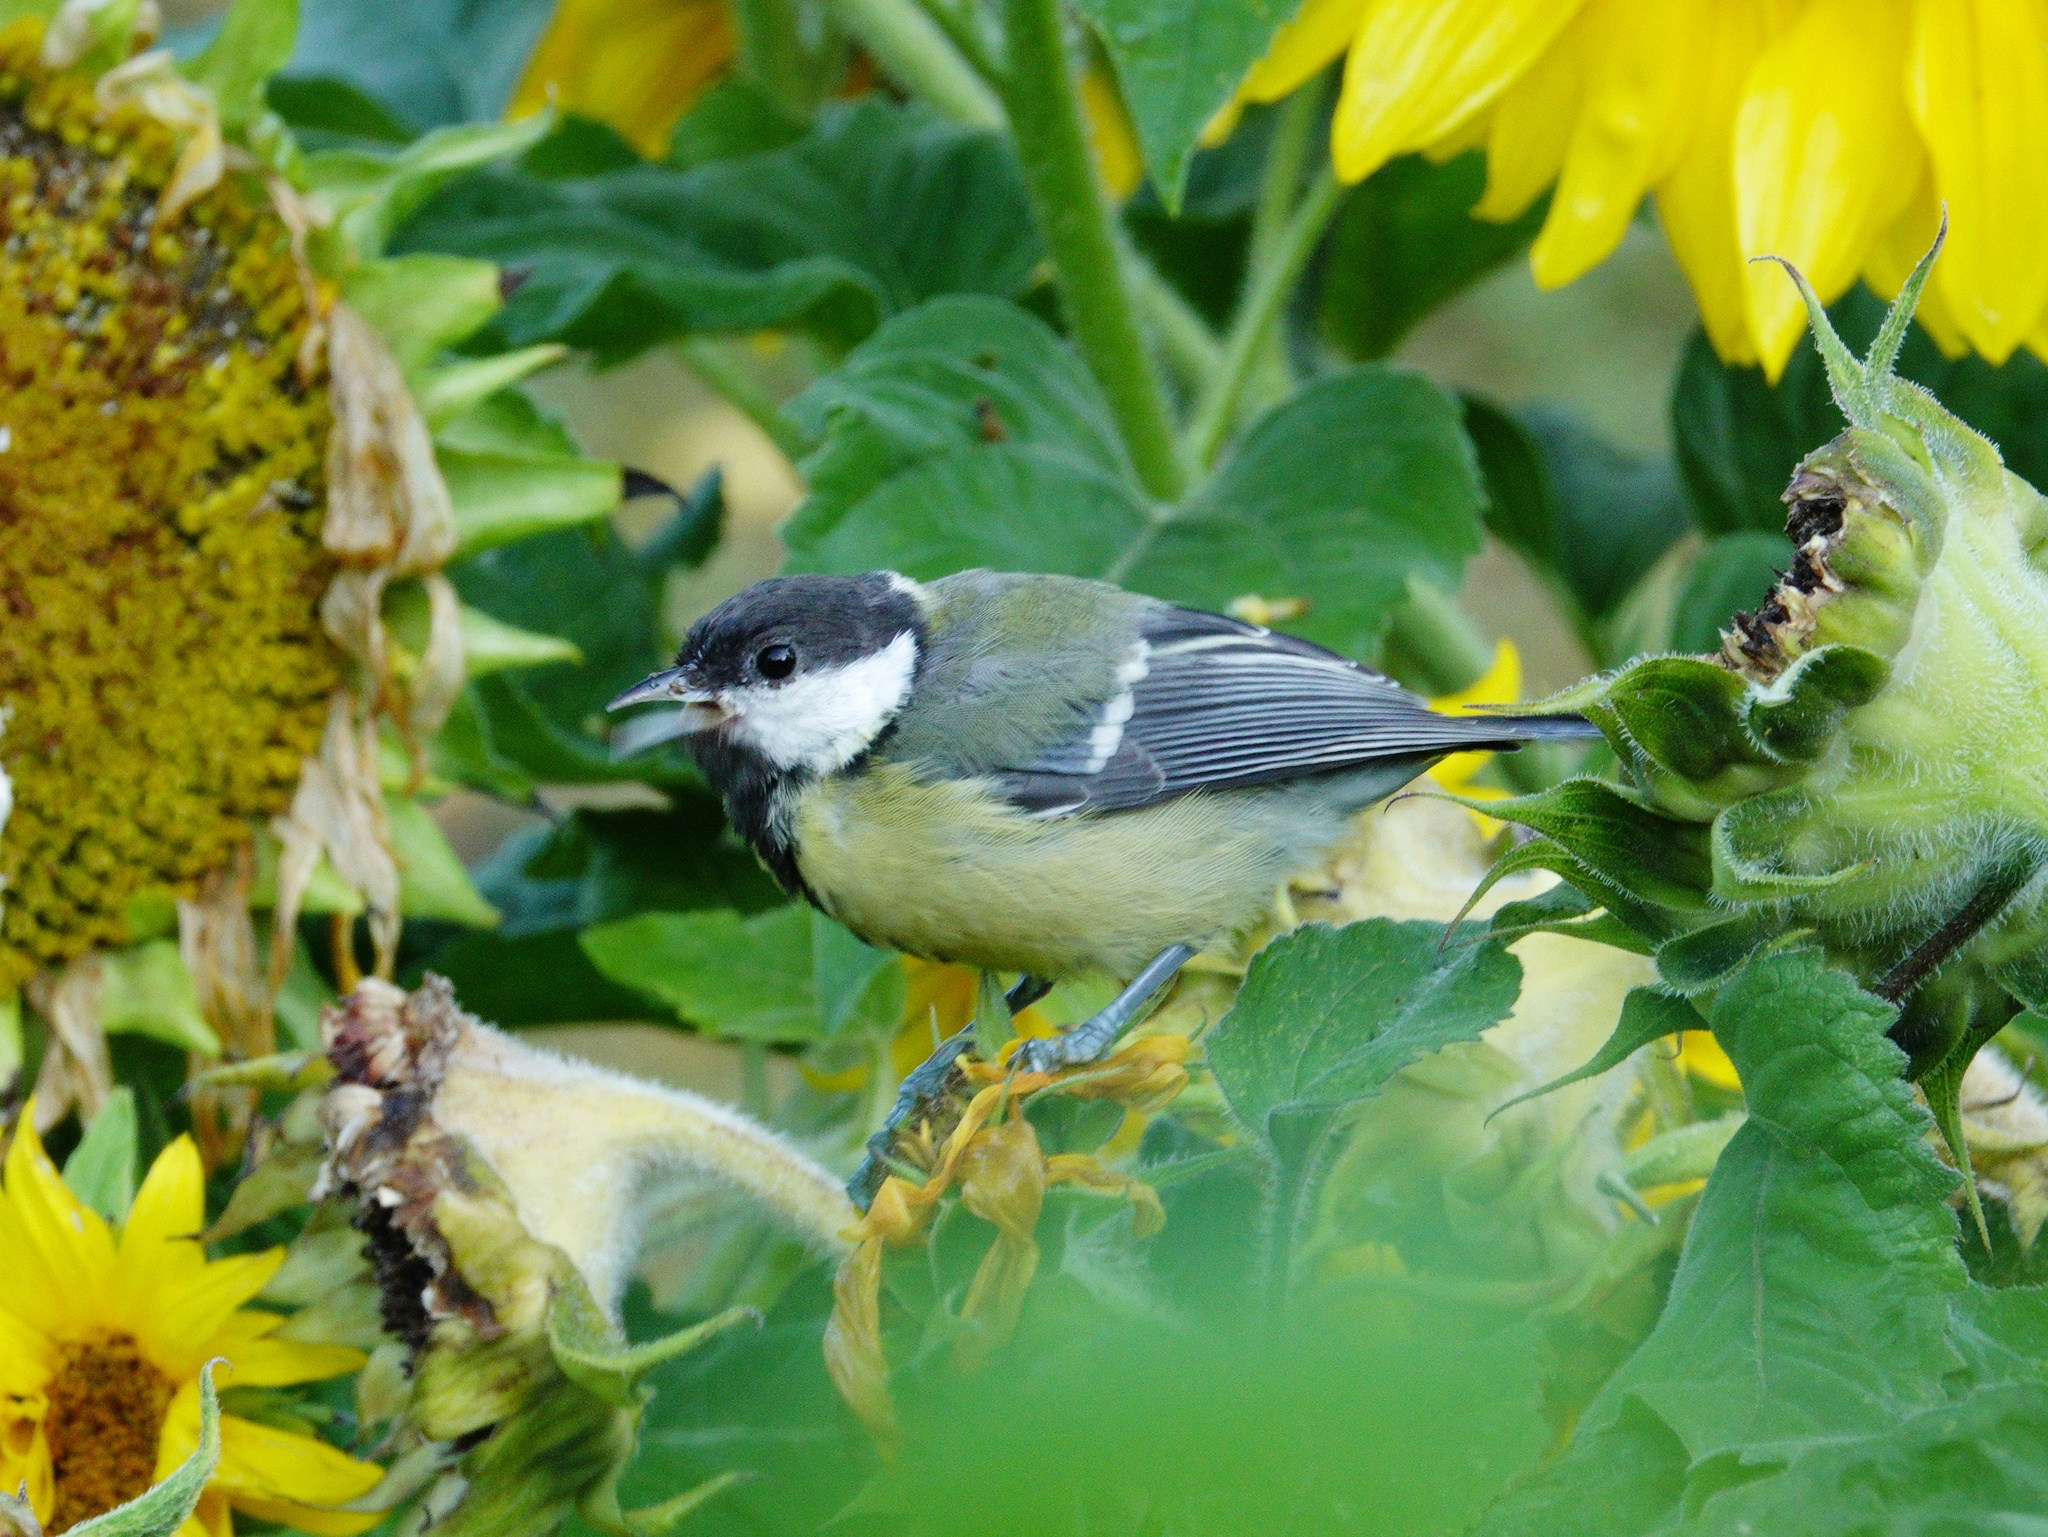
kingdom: Animalia
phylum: Chordata
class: Aves
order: Passeriformes
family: Paridae
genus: Parus
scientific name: Parus major
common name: Great tit
